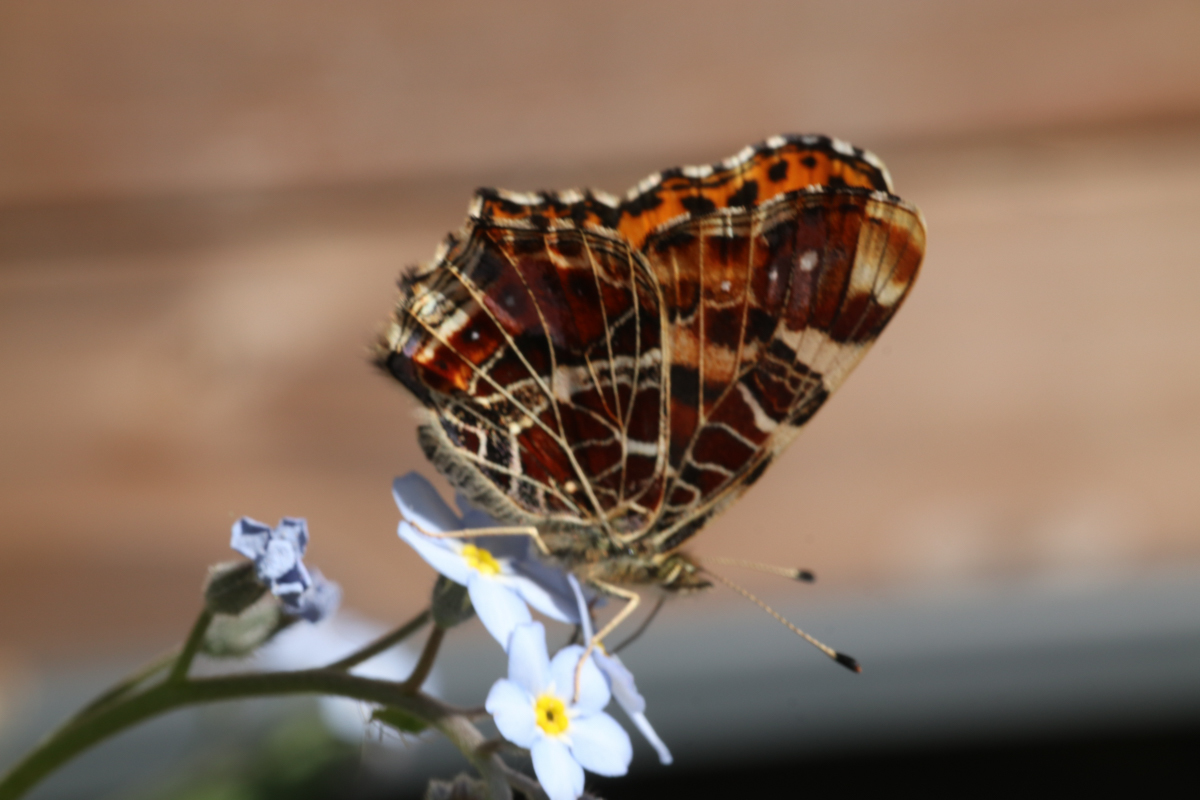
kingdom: Animalia
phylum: Arthropoda
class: Insecta
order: Lepidoptera
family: Nymphalidae
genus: Araschnia
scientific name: Araschnia levana
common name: Map butterfly
